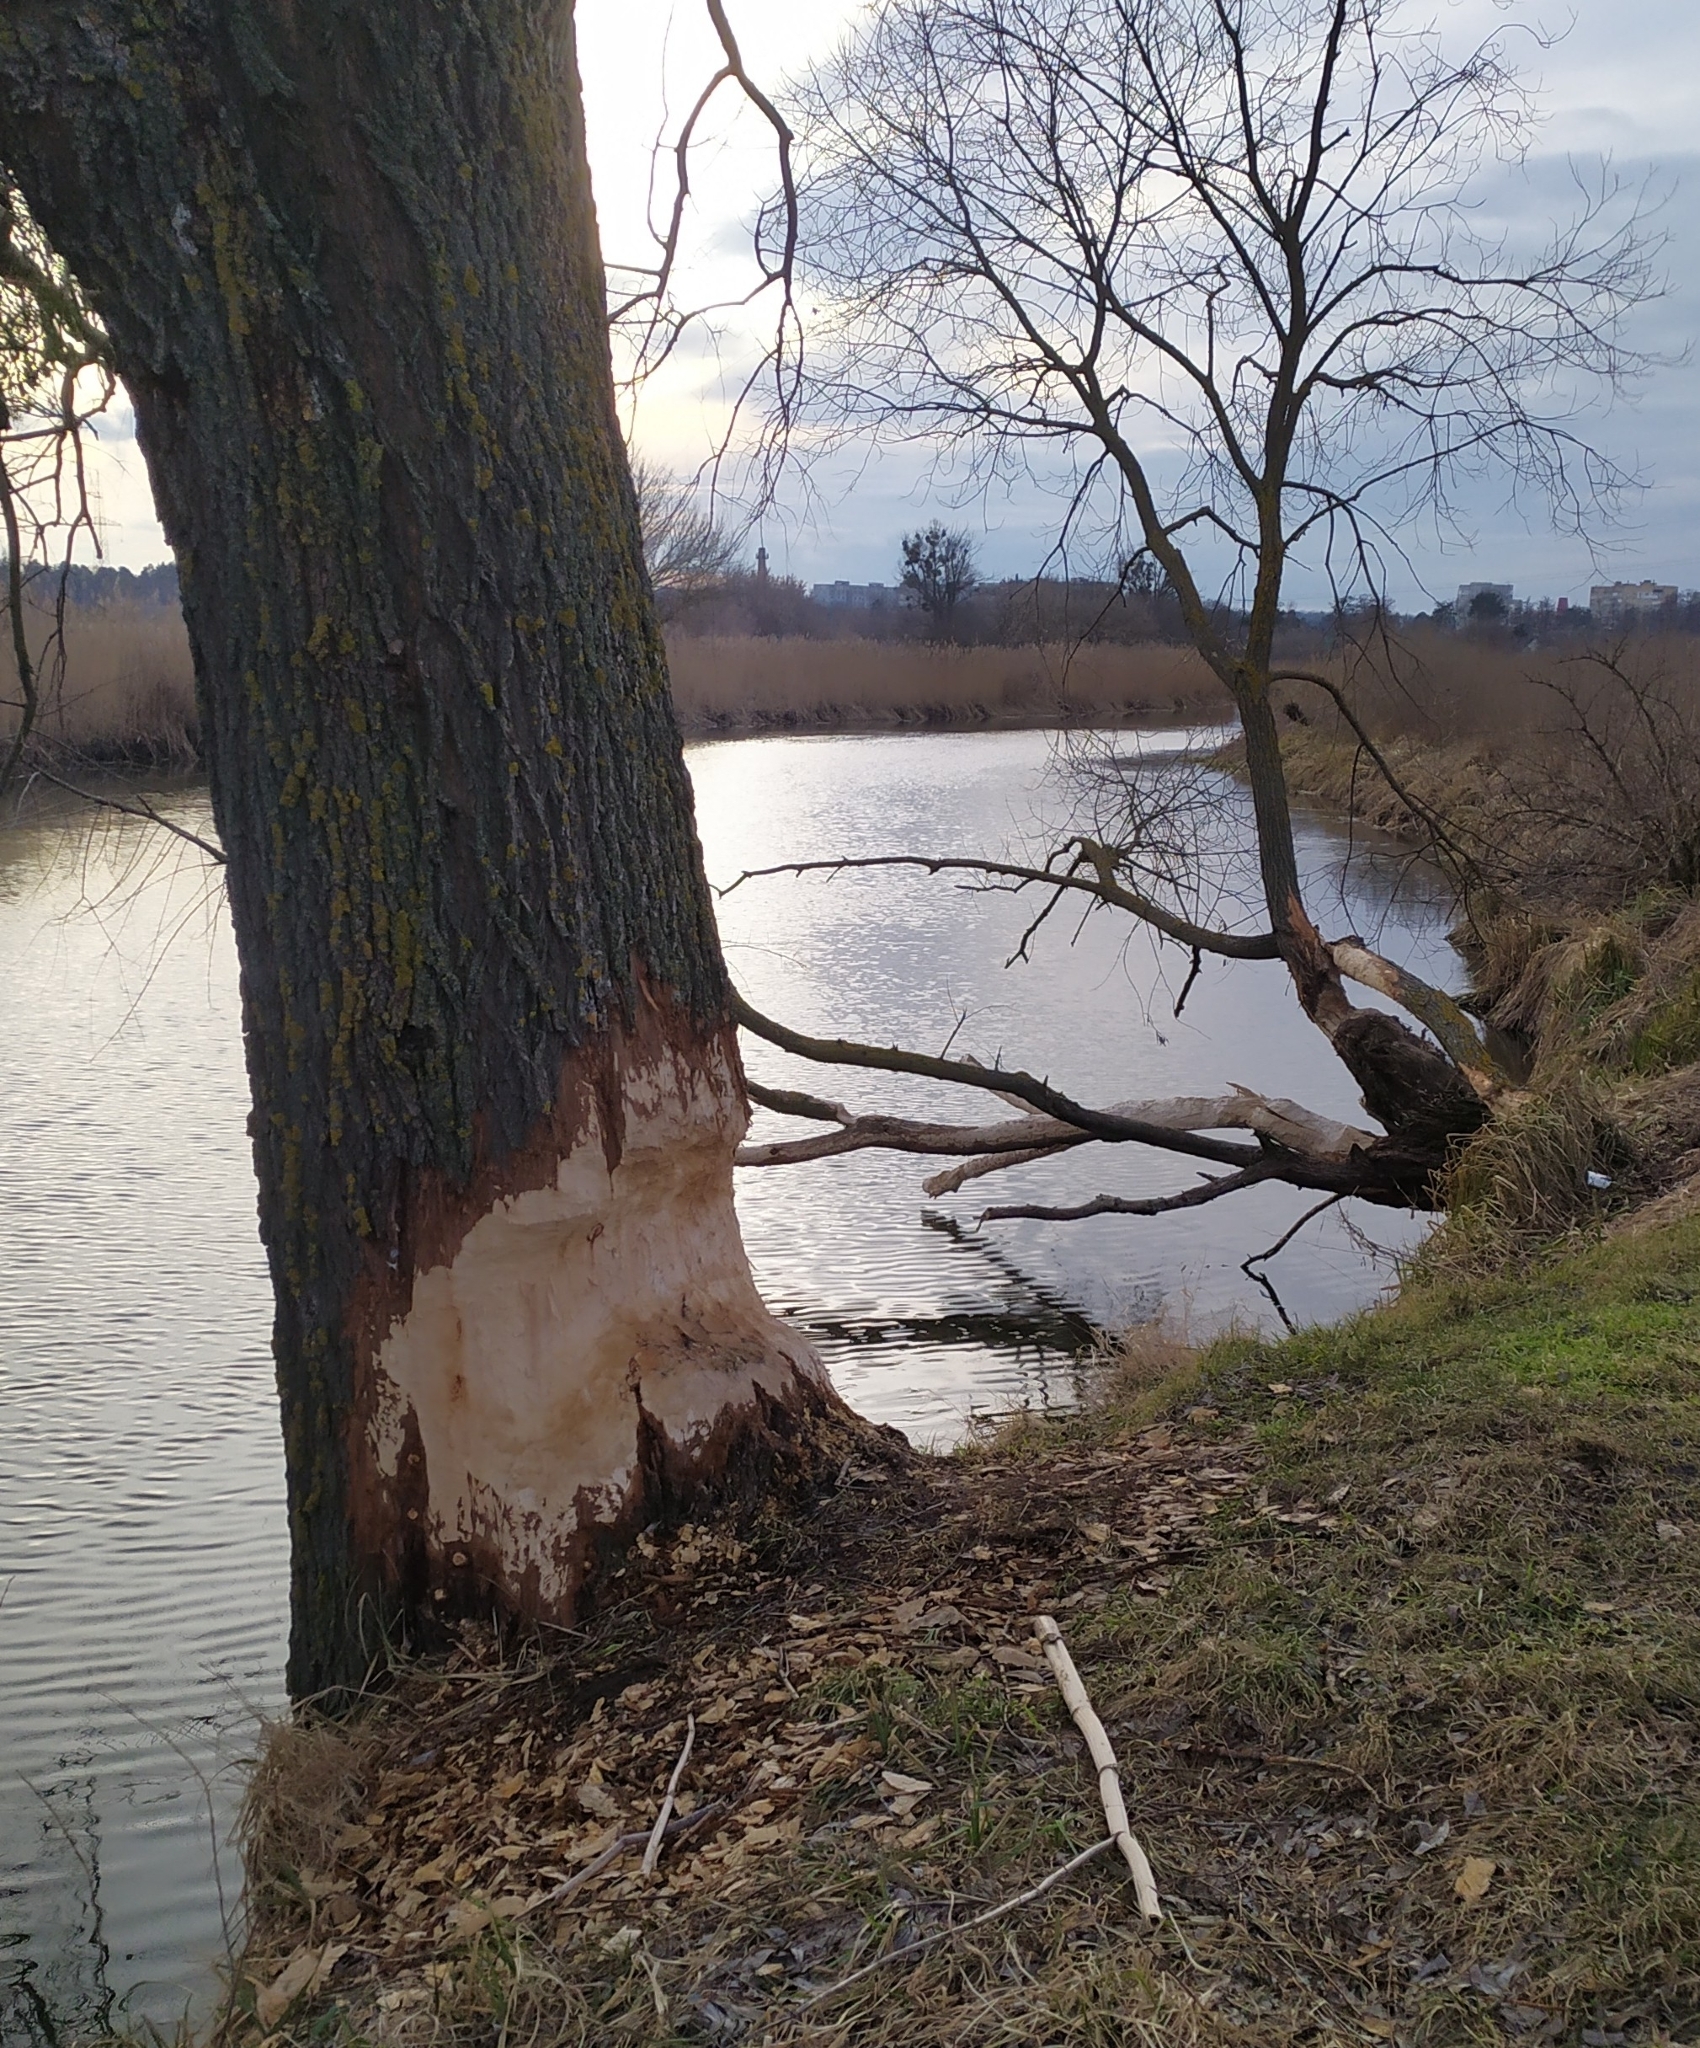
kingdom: Animalia
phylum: Chordata
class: Mammalia
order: Rodentia
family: Castoridae
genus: Castor
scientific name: Castor fiber
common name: Eurasian beaver
